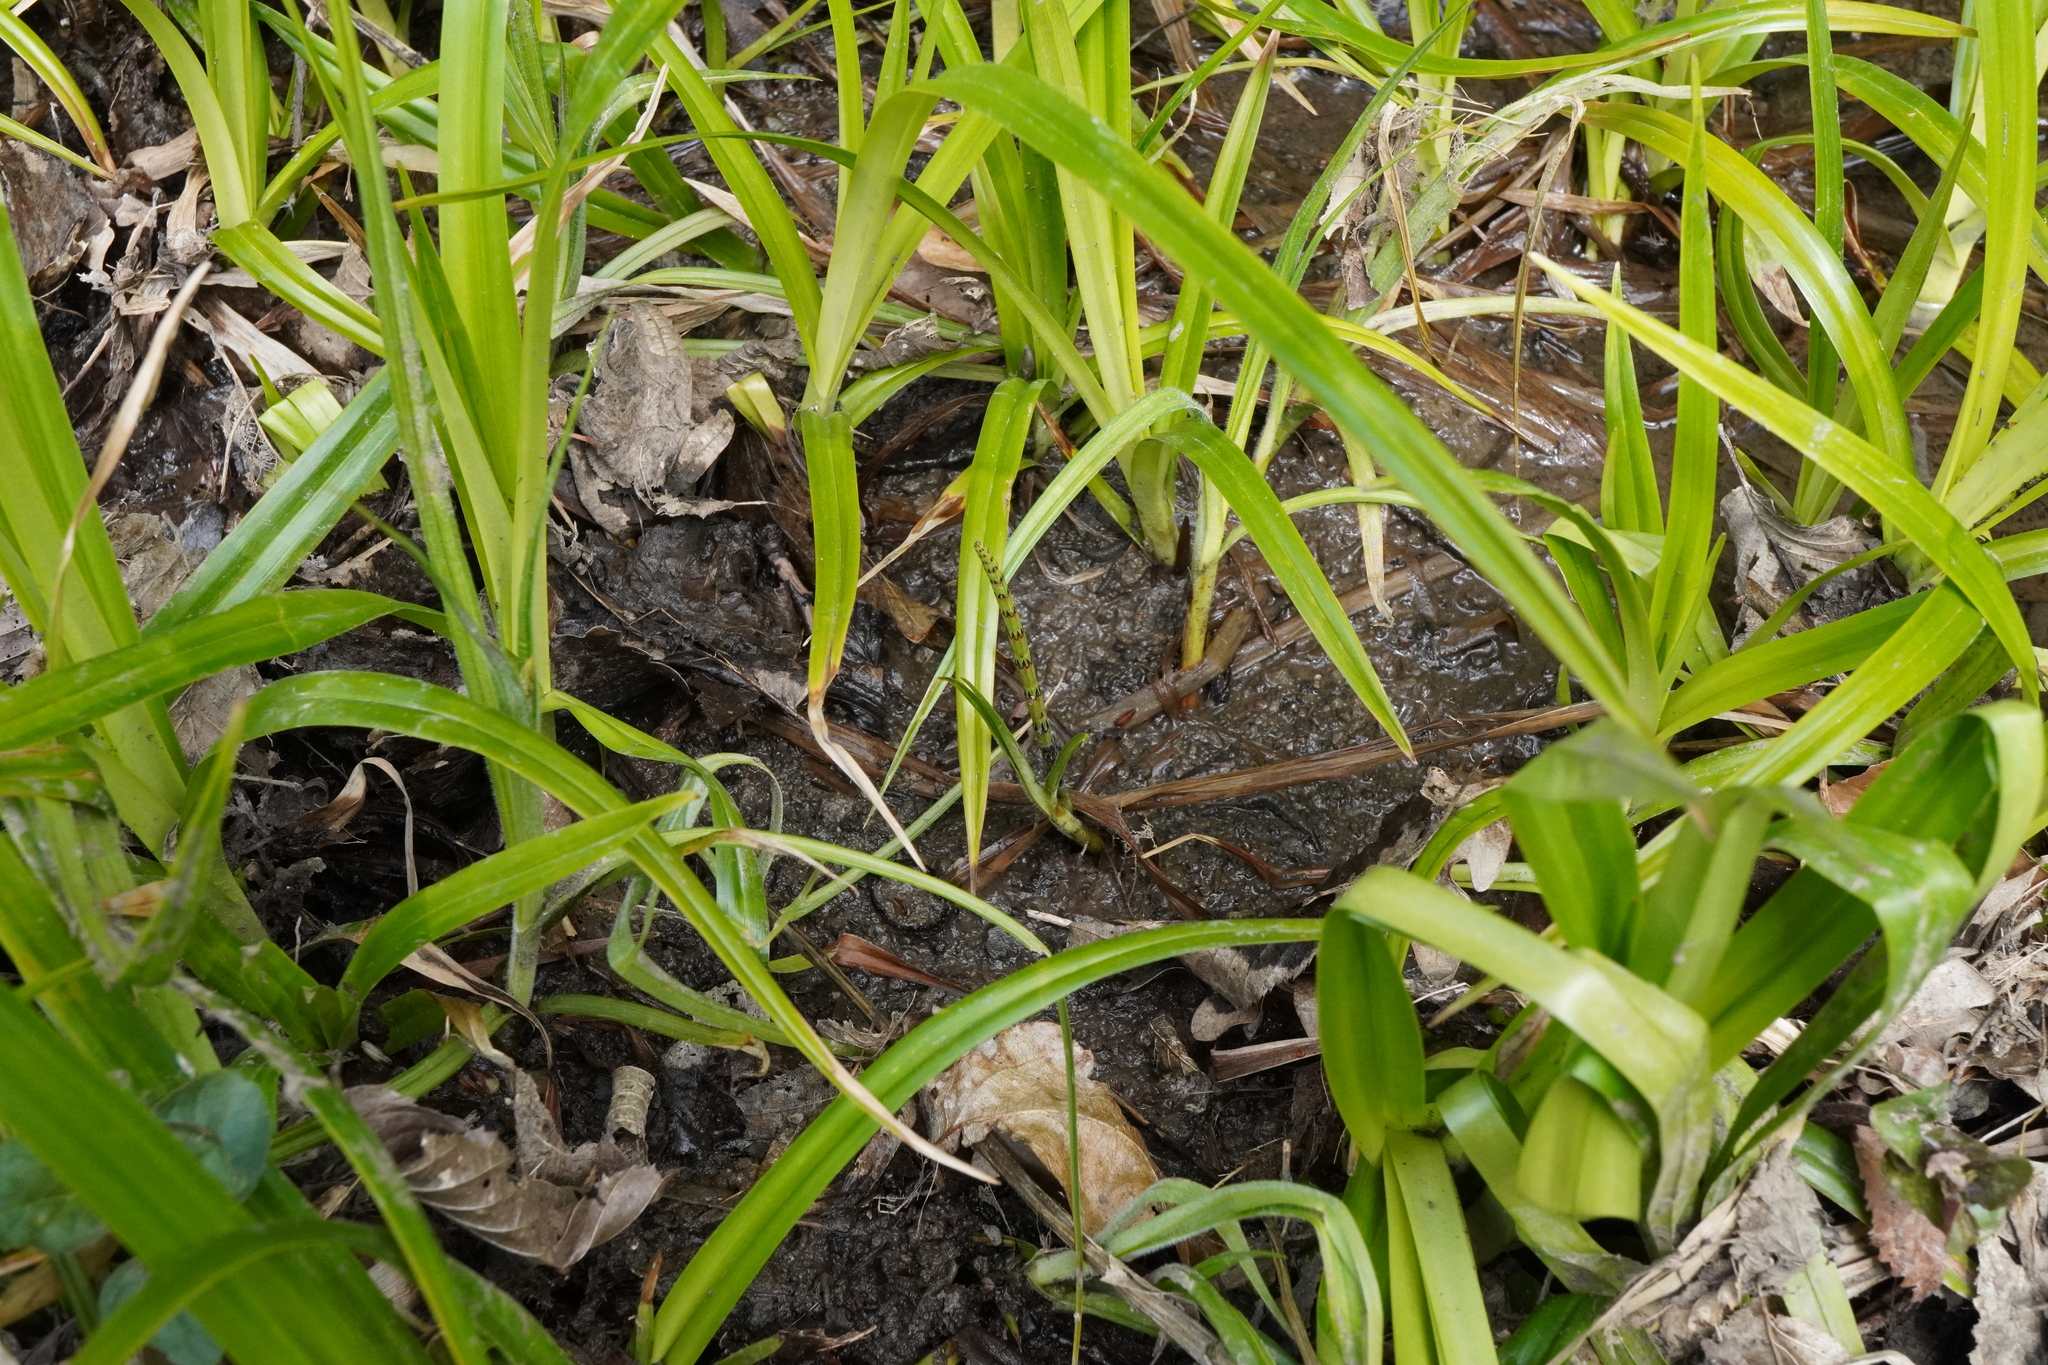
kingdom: Plantae
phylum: Tracheophyta
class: Polypodiopsida
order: Equisetales
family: Equisetaceae
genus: Equisetum
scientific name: Equisetum palustre
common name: Marsh horsetail
